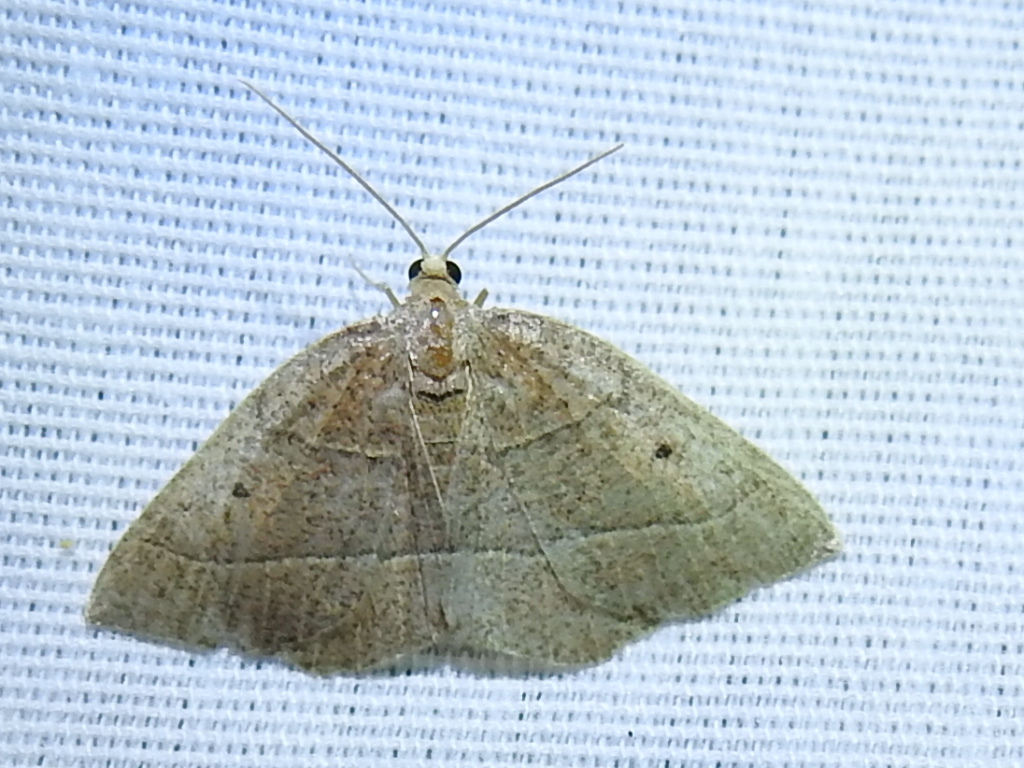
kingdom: Animalia
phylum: Arthropoda
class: Insecta
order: Lepidoptera
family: Geometridae
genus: Episemasia
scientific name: Episemasia cervinaria
